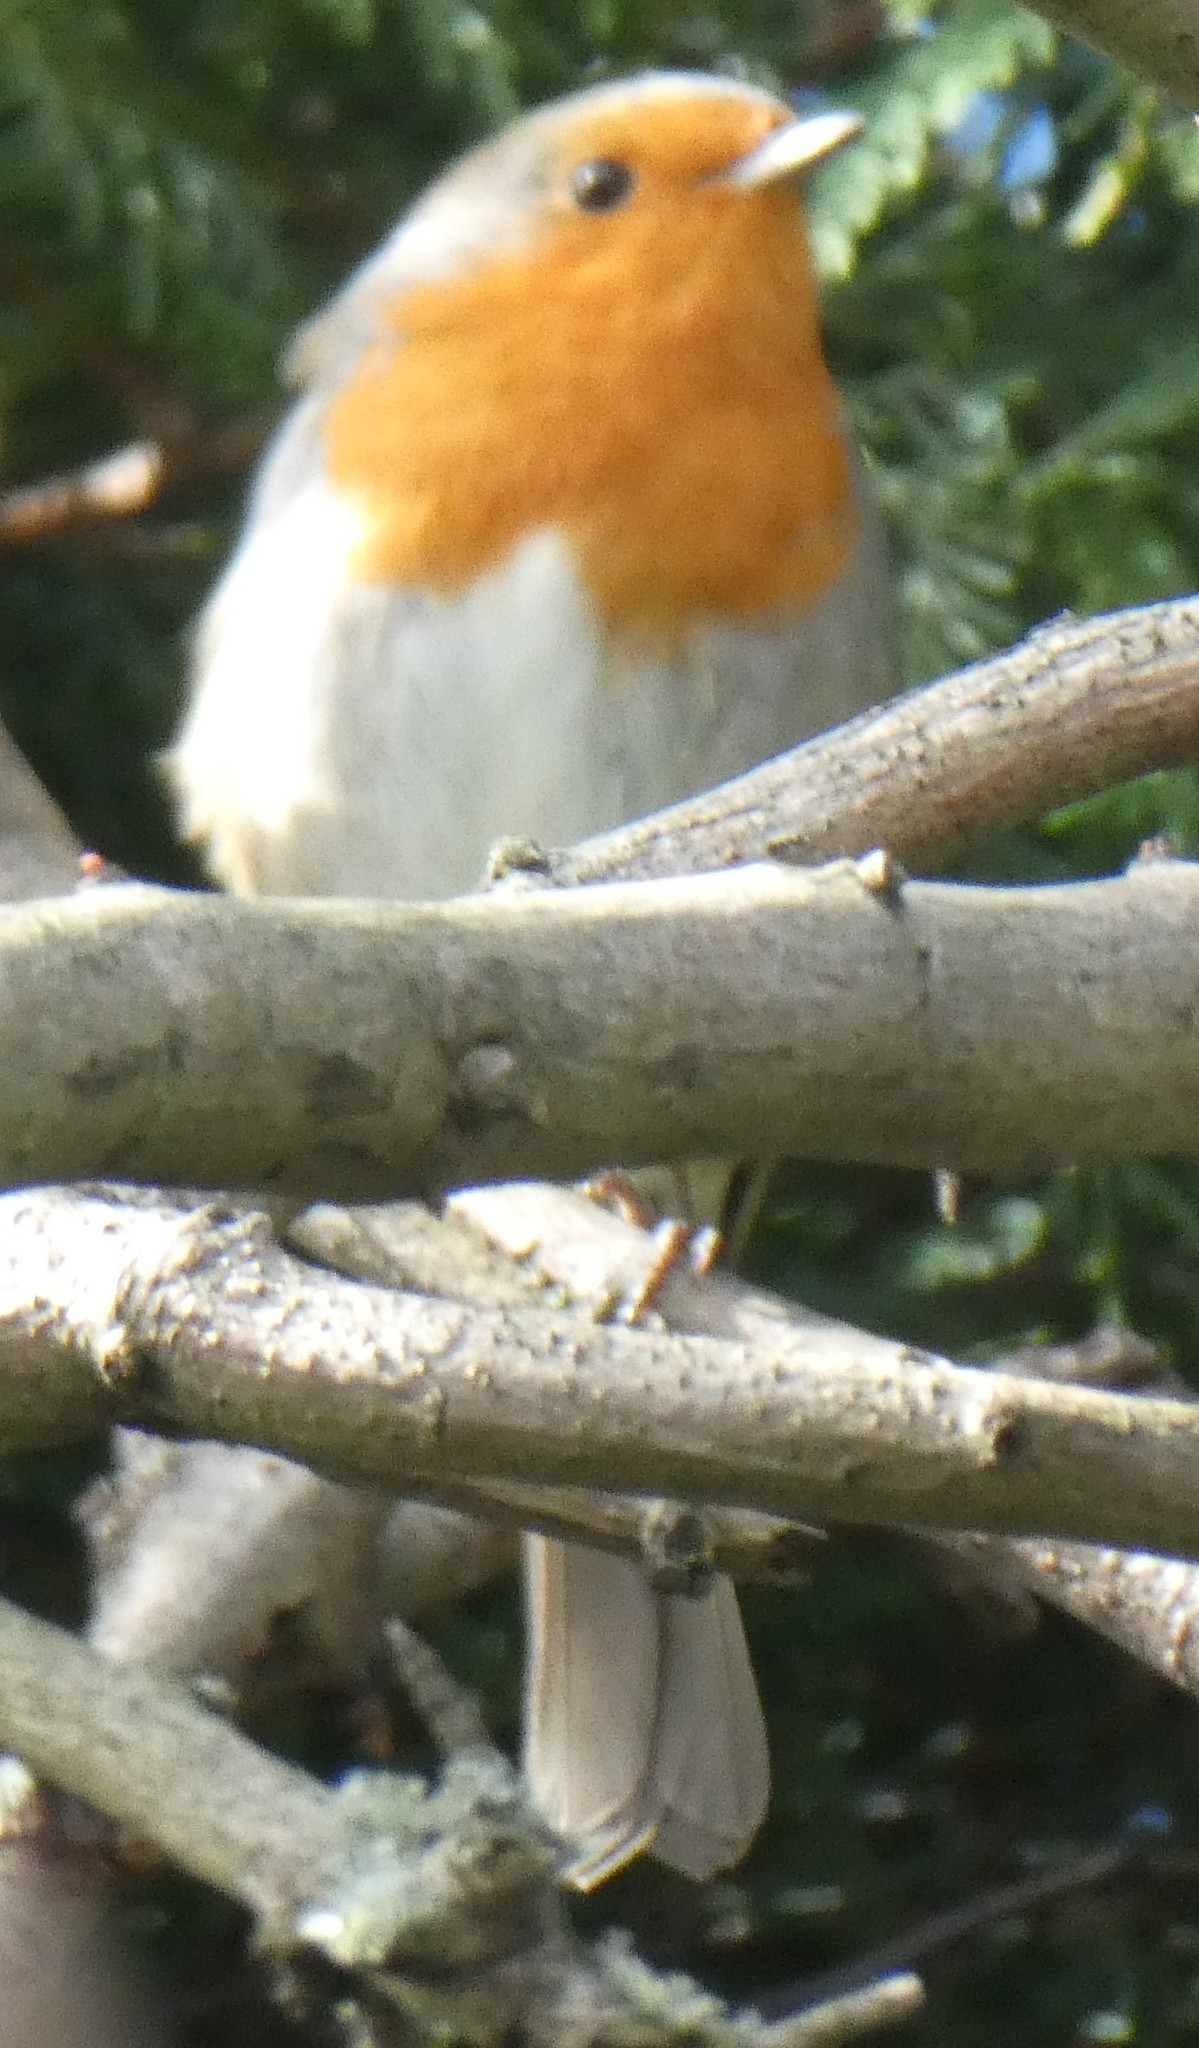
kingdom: Animalia
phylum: Chordata
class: Aves
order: Passeriformes
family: Muscicapidae
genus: Erithacus
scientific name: Erithacus rubecula
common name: European robin
